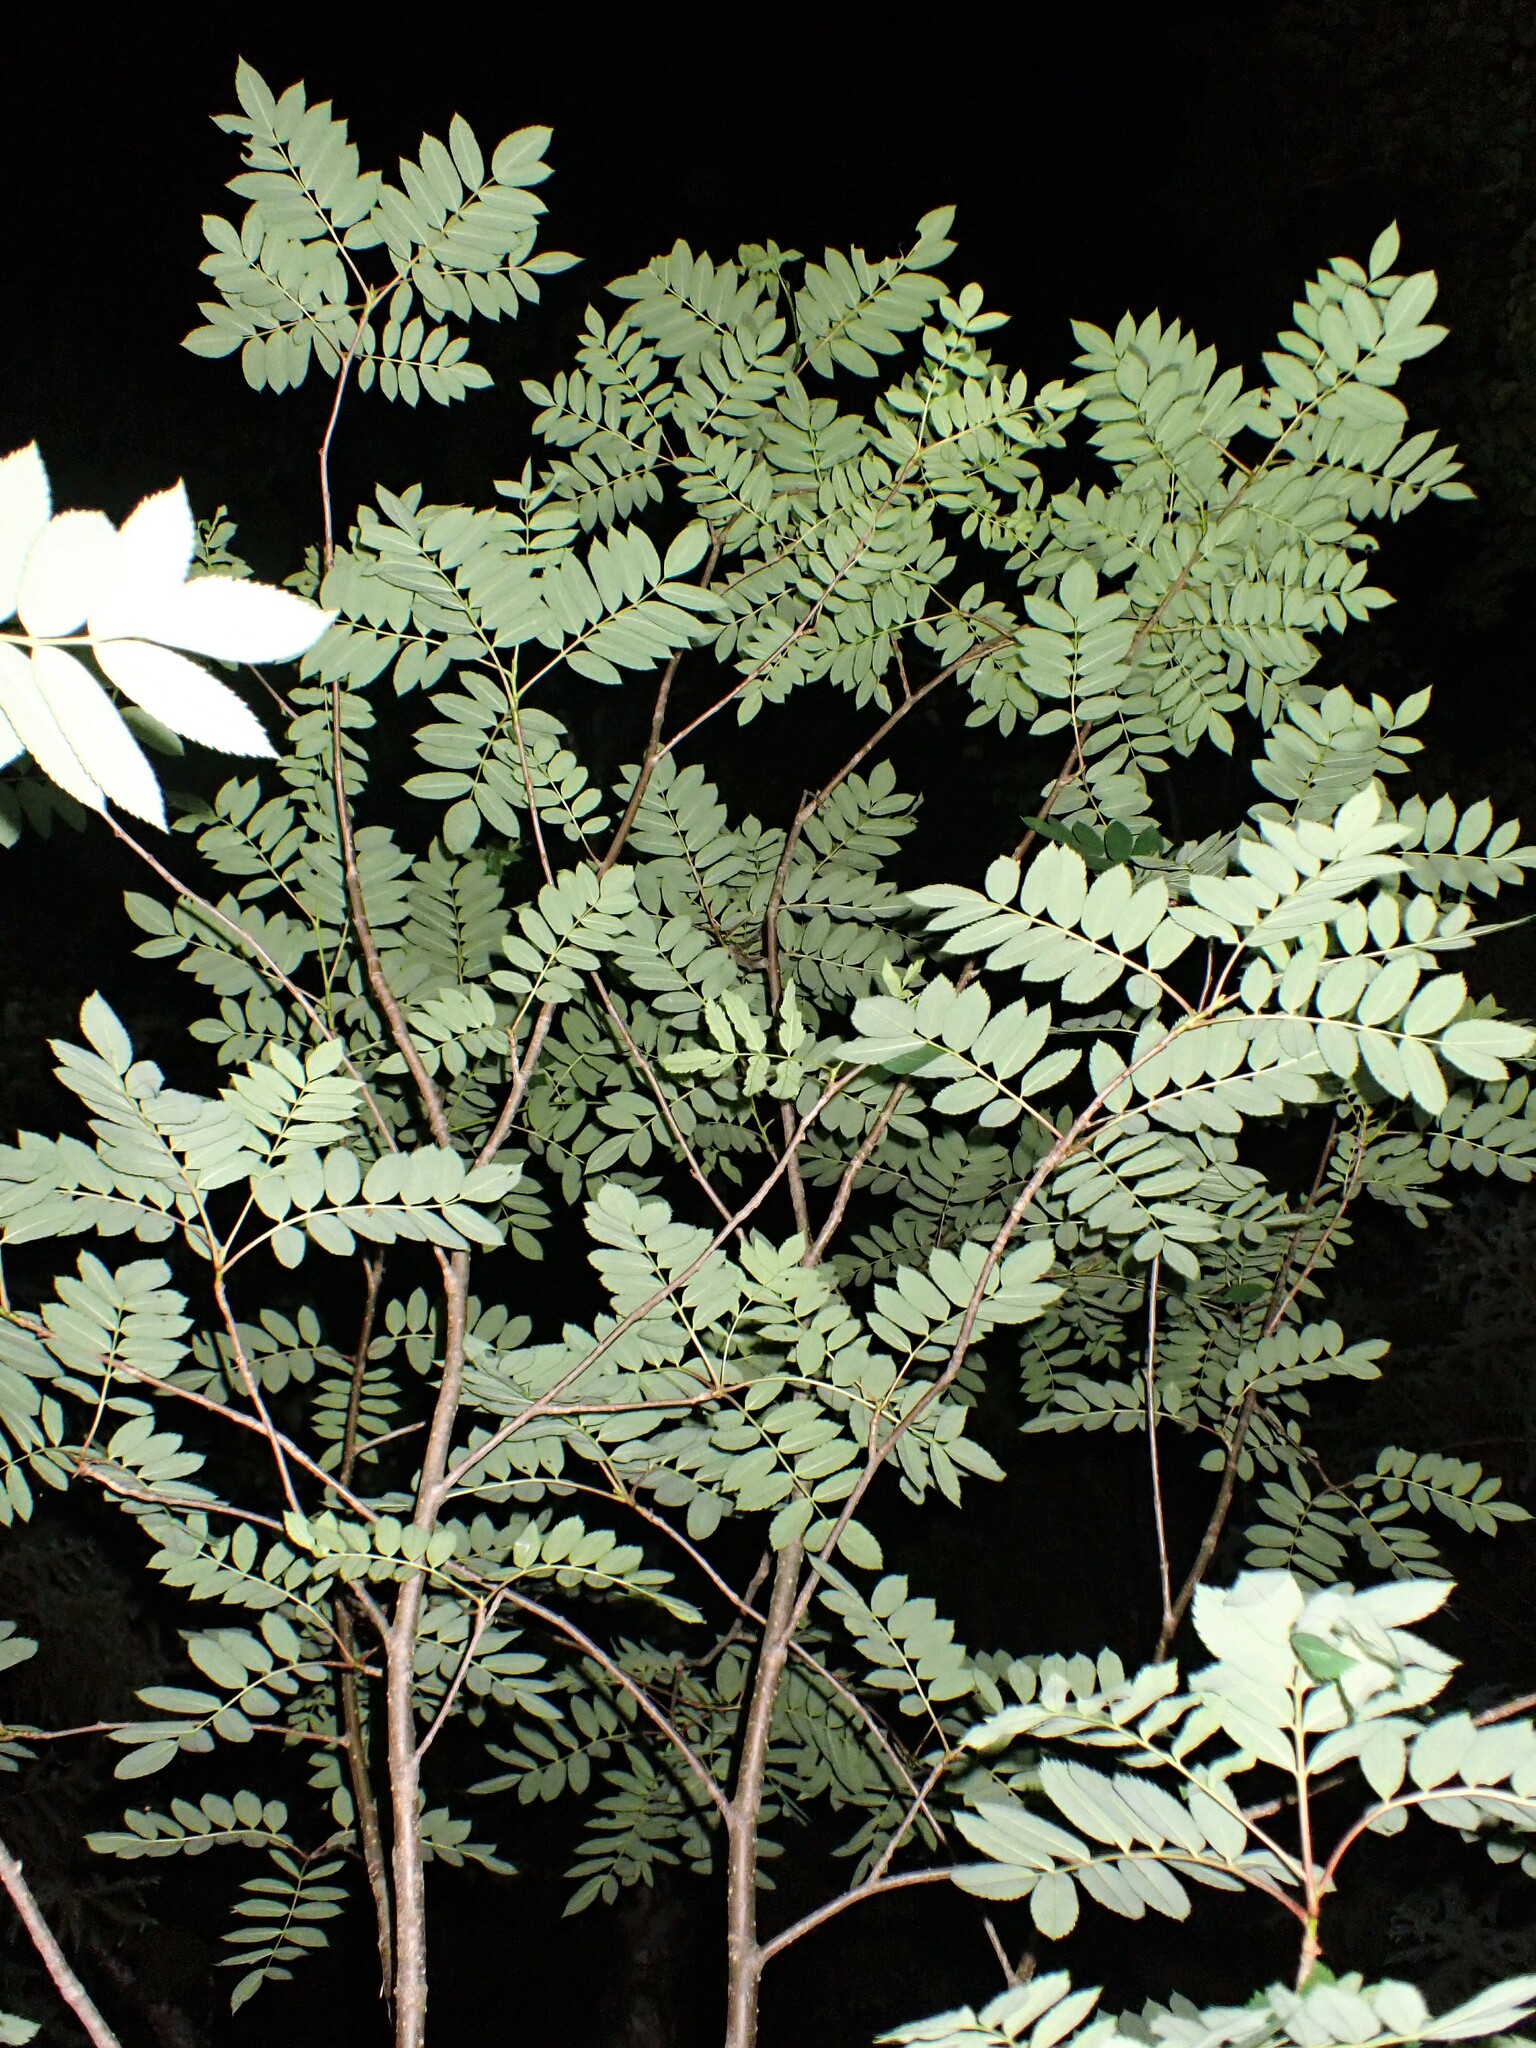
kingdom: Plantae
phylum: Tracheophyta
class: Magnoliopsida
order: Rosales
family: Rosaceae
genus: Sorbus
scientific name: Sorbus decora
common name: Northern mountain-ash
